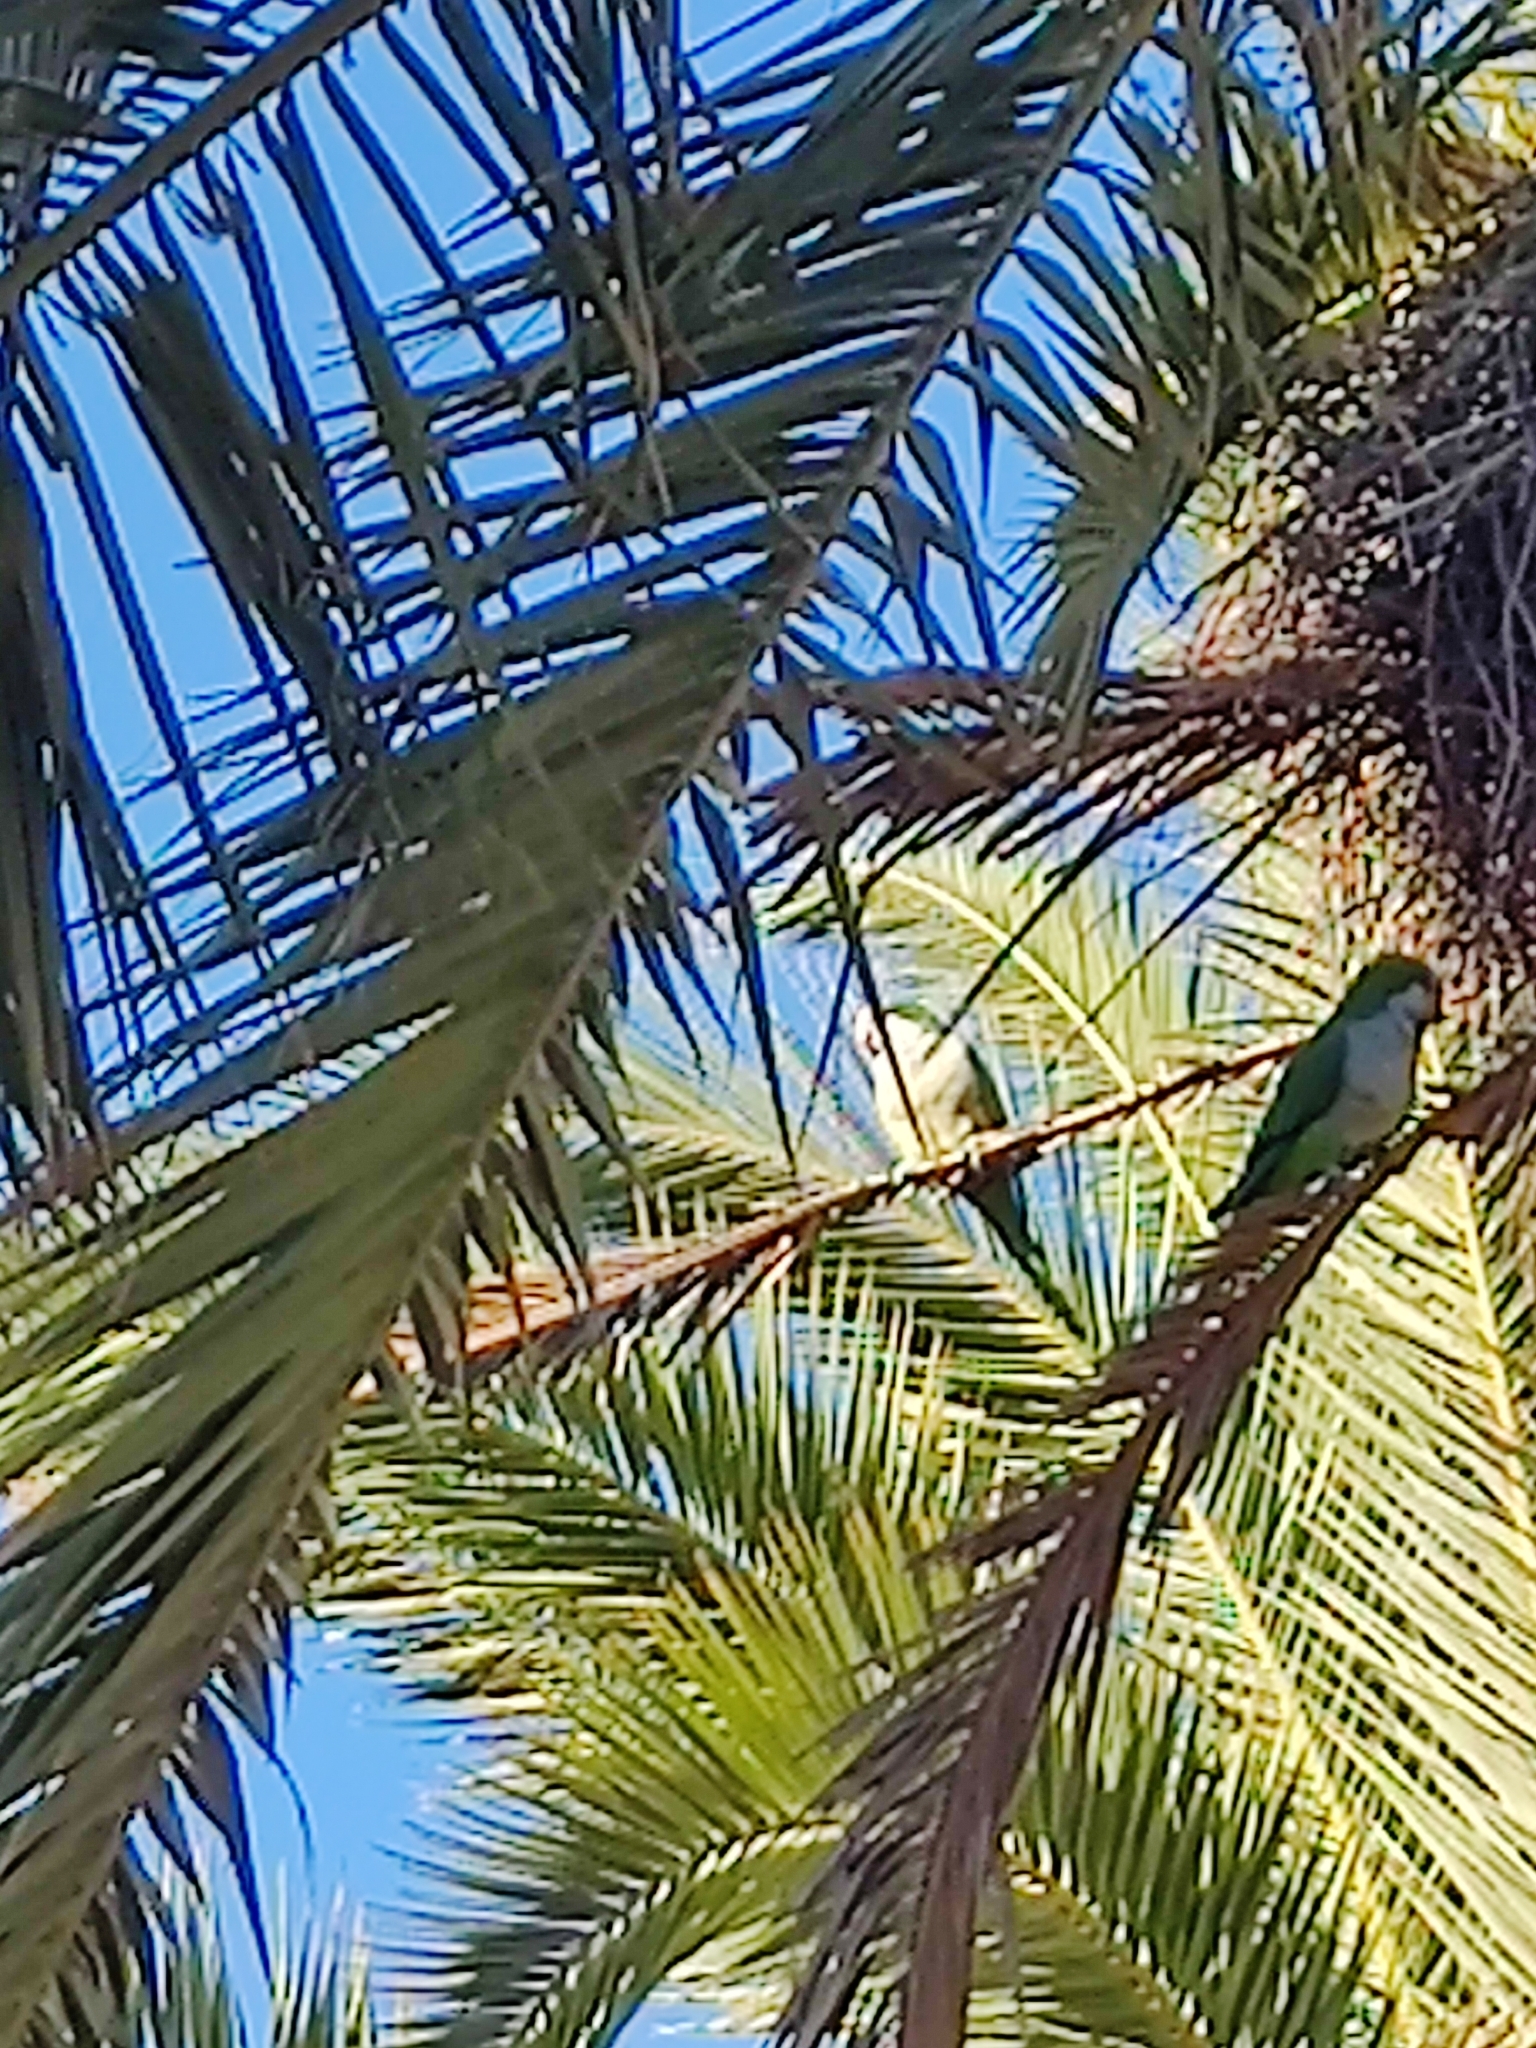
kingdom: Animalia
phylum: Chordata
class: Aves
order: Psittaciformes
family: Psittacidae
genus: Myiopsitta
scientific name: Myiopsitta monachus
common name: Monk parakeet
